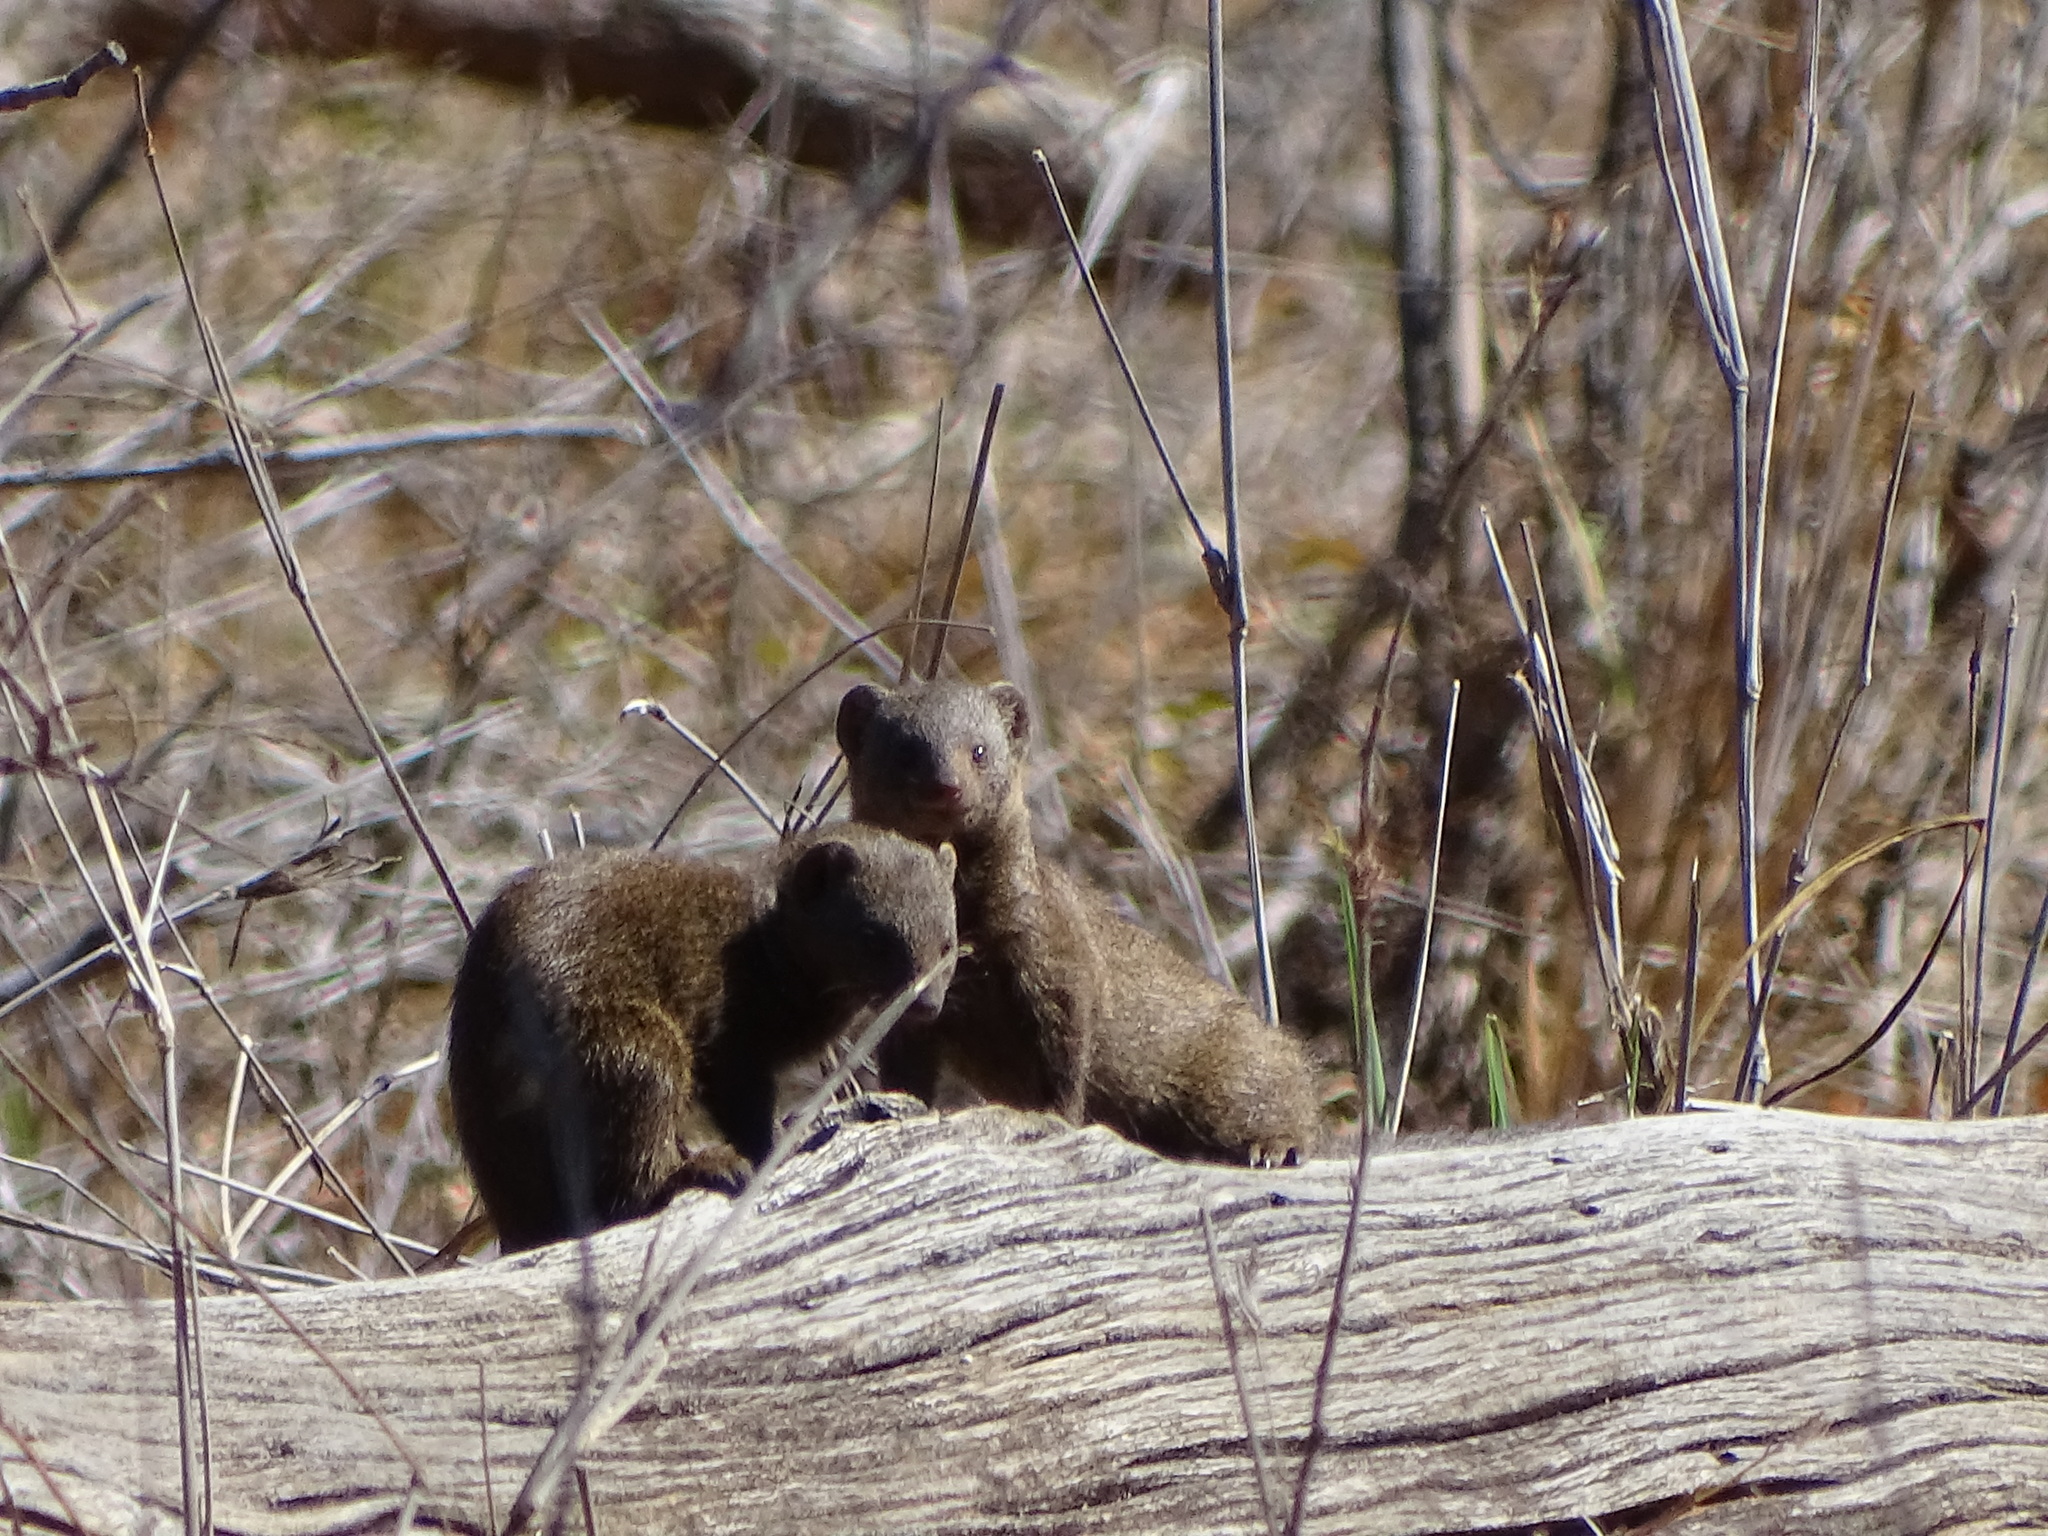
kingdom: Animalia
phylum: Chordata
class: Mammalia
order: Carnivora
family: Herpestidae
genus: Helogale
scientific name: Helogale parvula
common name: Common dwarf mongoose
